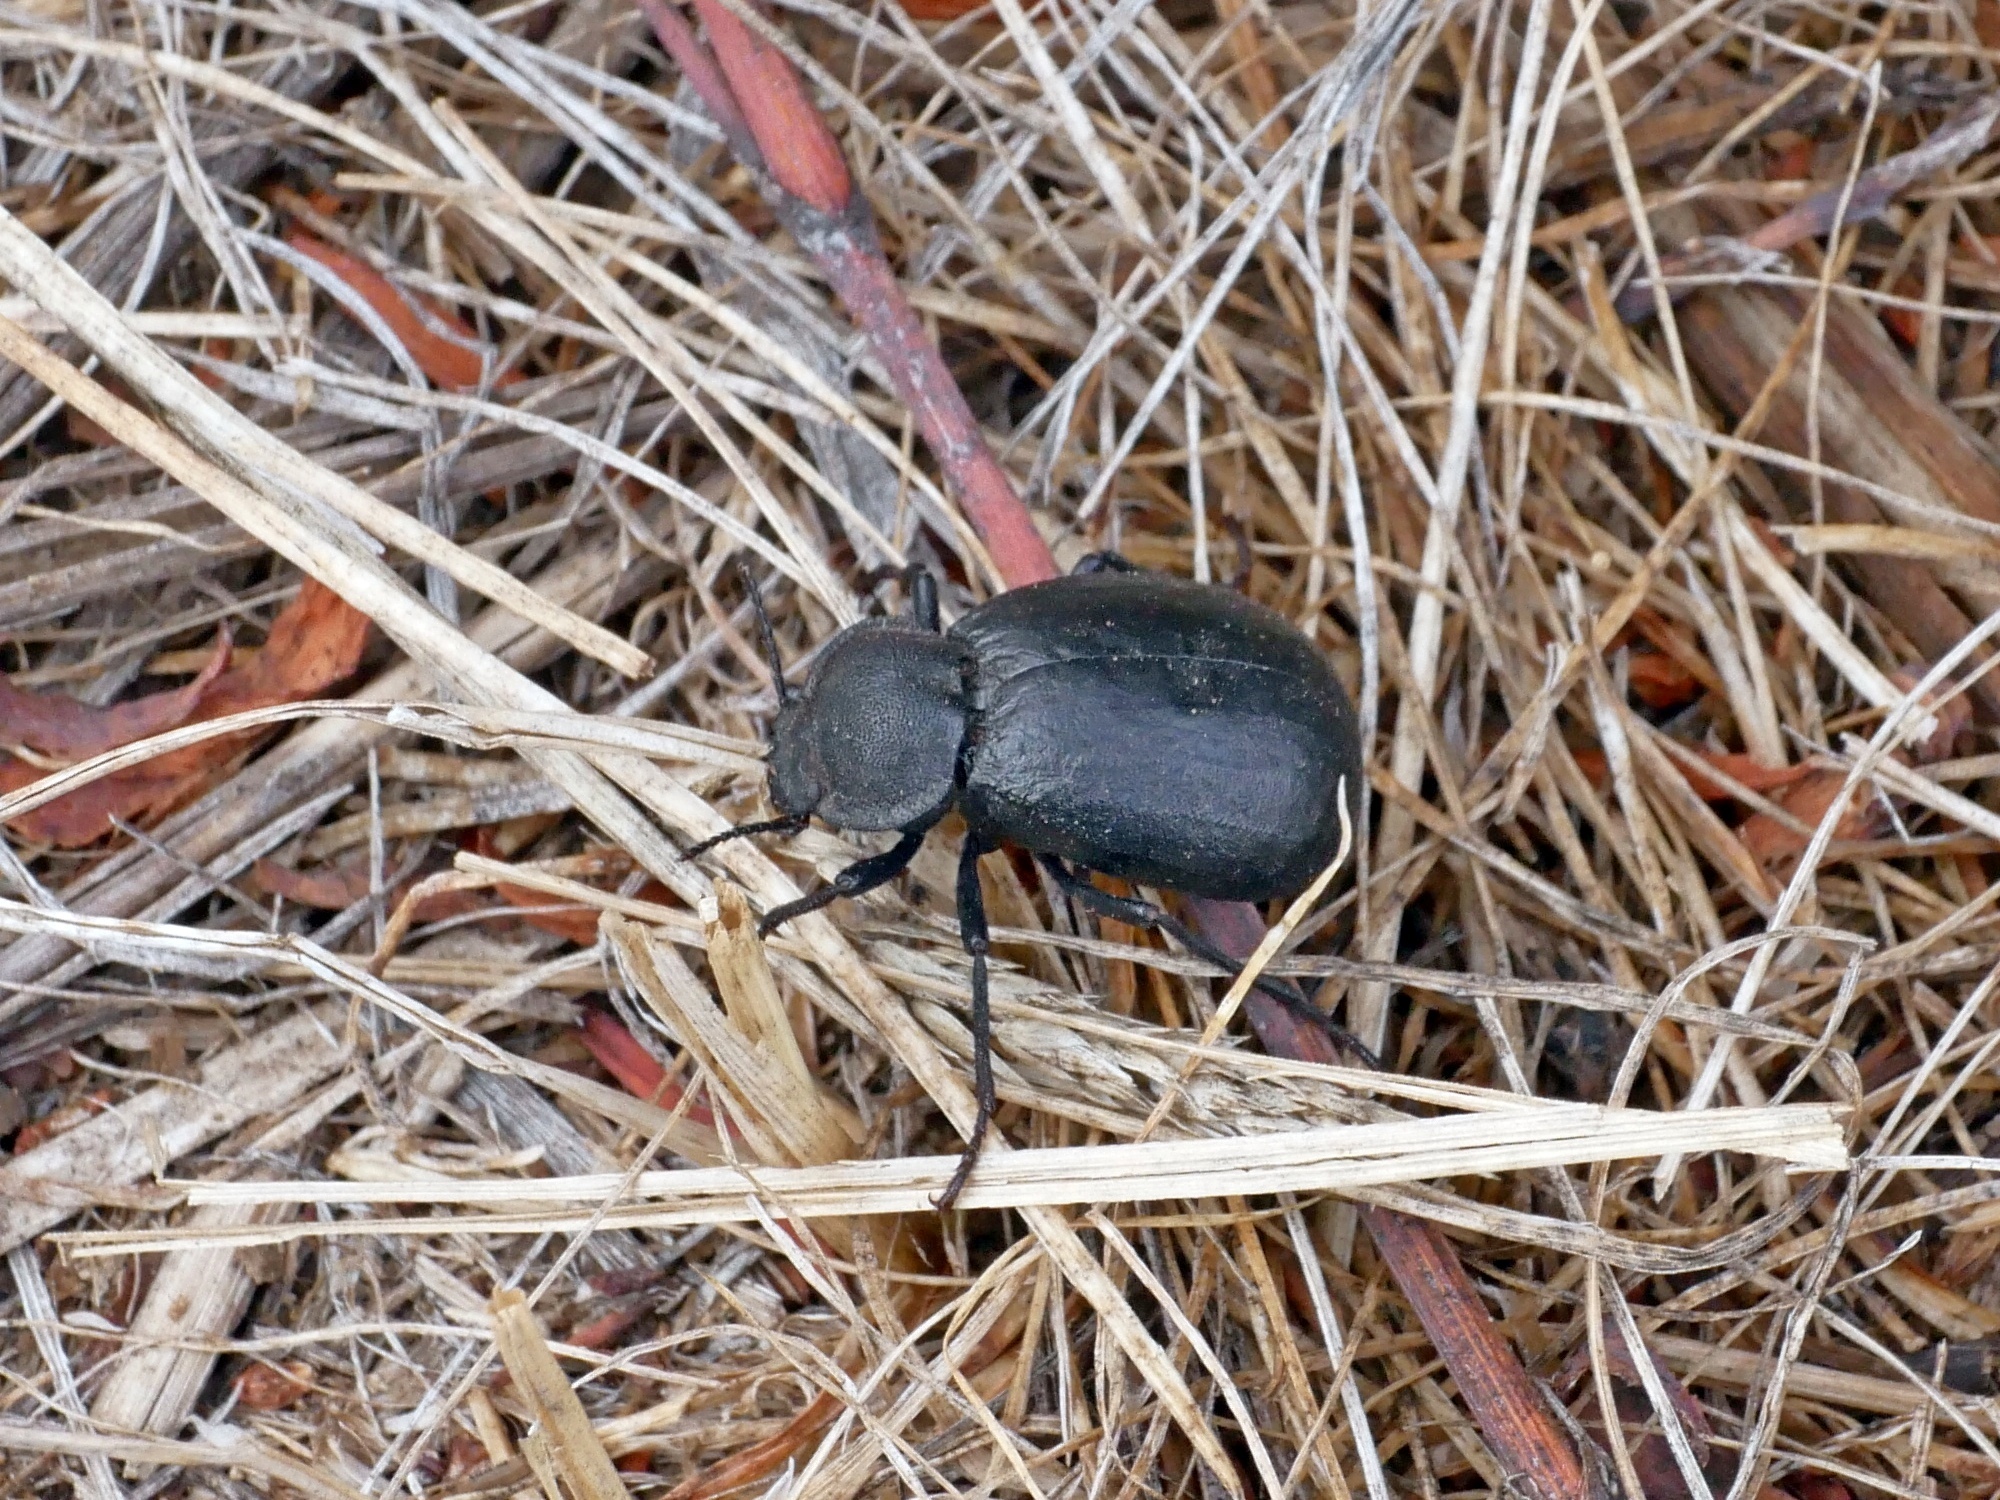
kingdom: Animalia
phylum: Arthropoda
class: Insecta
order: Coleoptera
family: Tenebrionidae
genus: Stenomorpha
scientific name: Stenomorpha puncticollis
